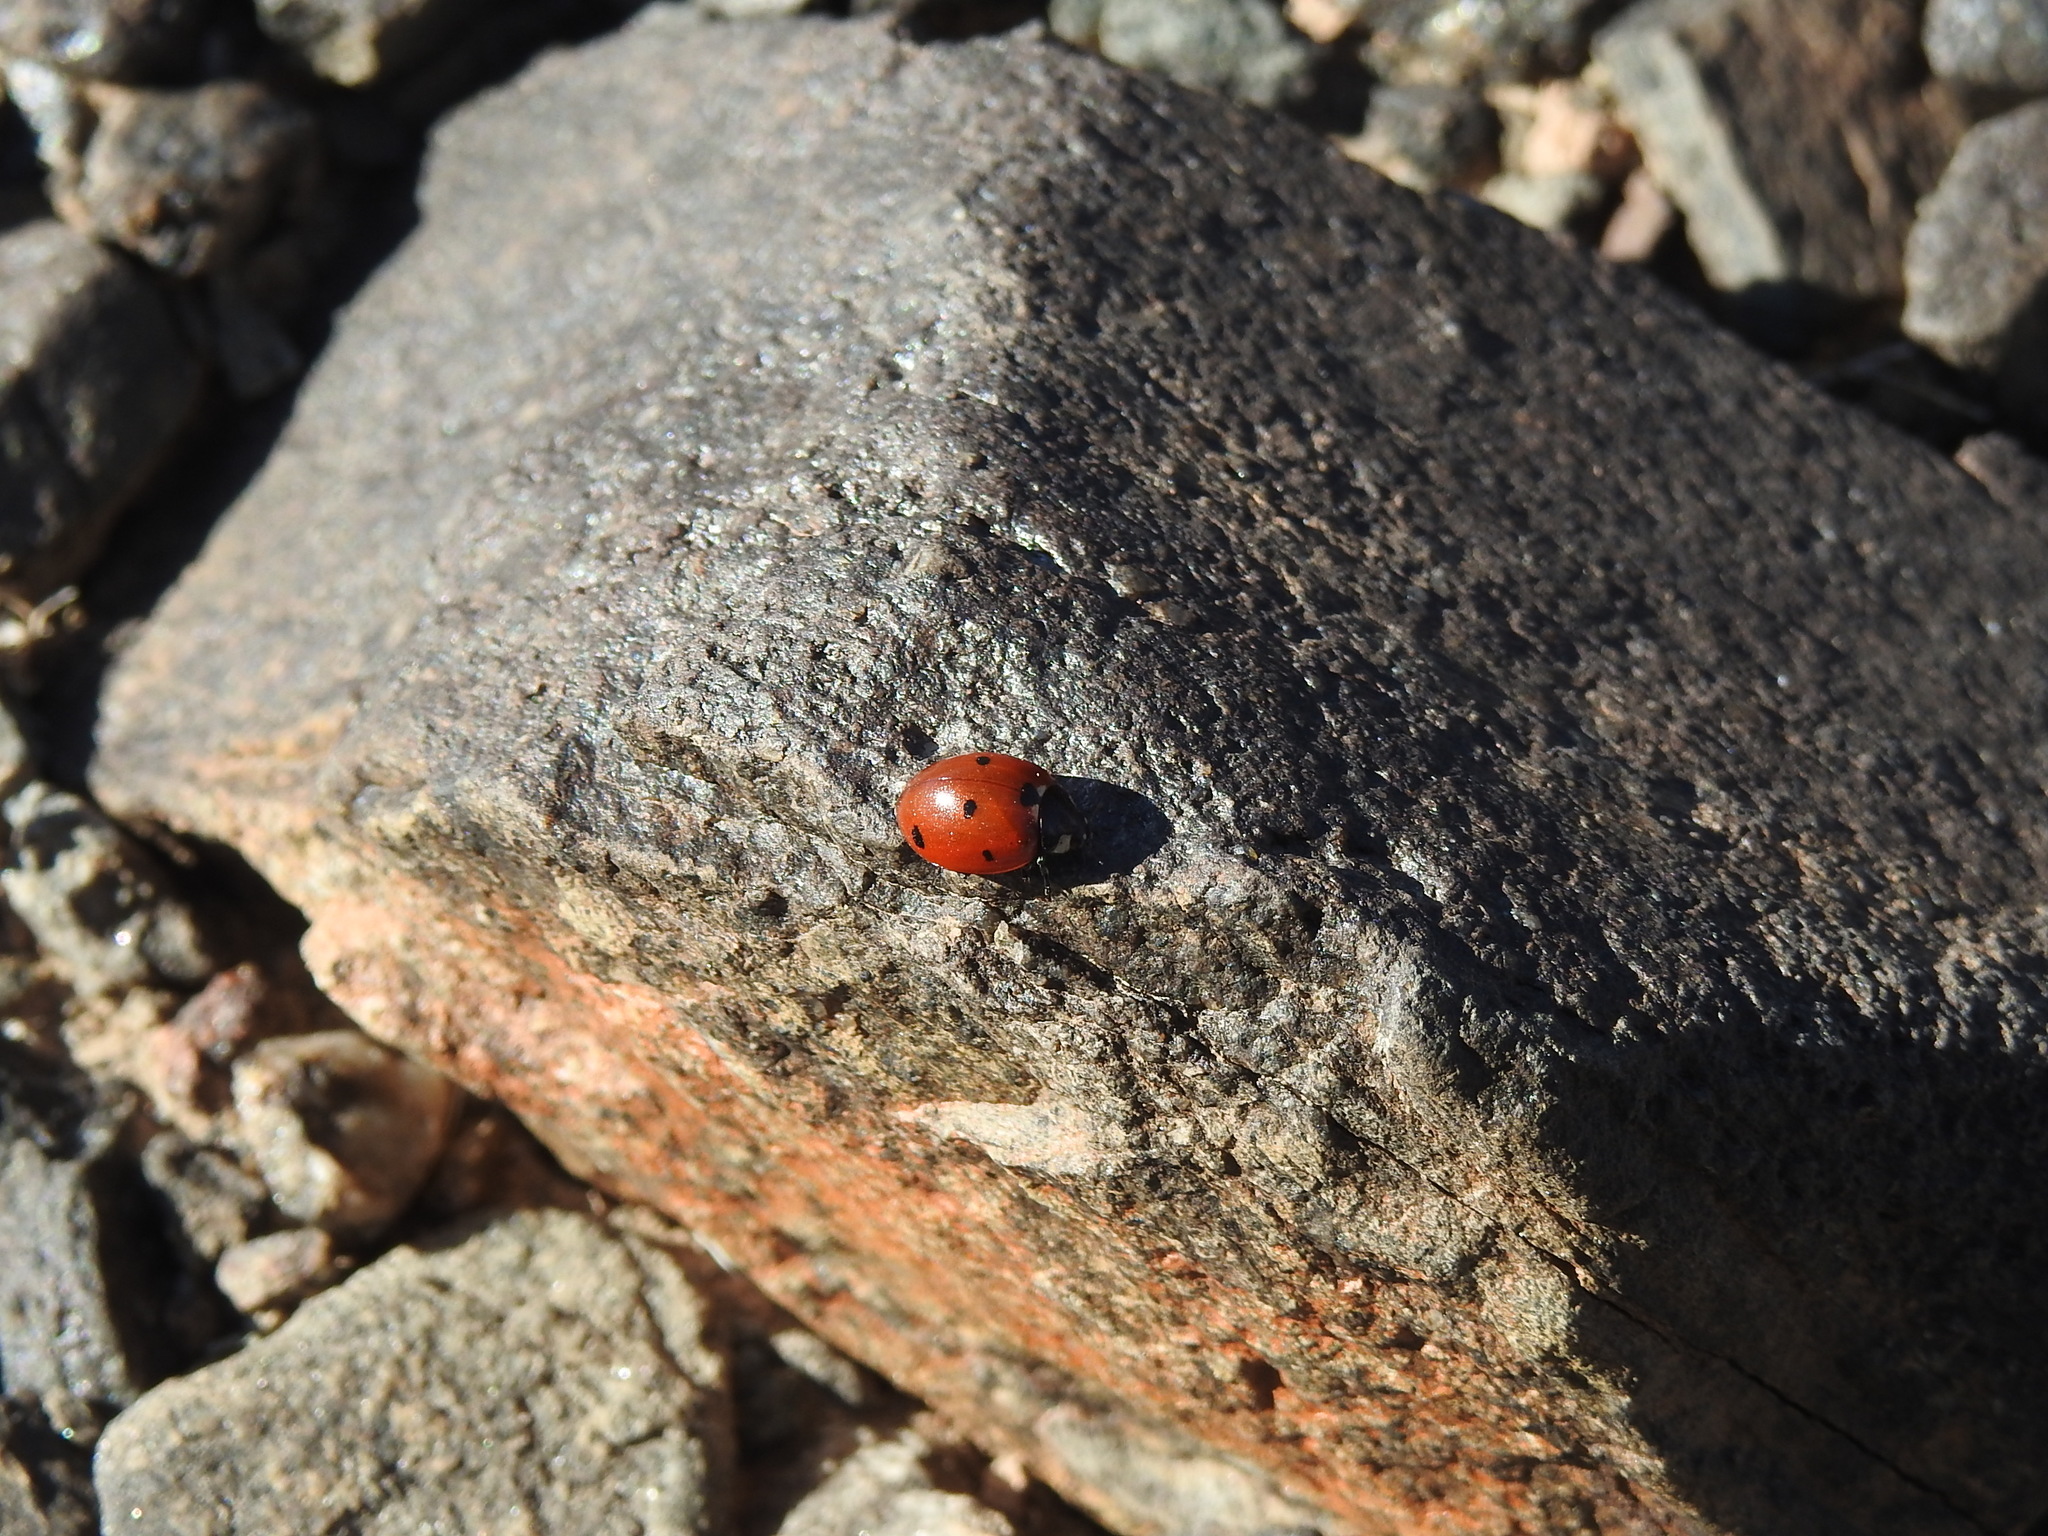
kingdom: Animalia
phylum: Arthropoda
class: Insecta
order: Coleoptera
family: Coccinellidae
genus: Coccinella
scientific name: Coccinella septempunctata
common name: Sevenspotted lady beetle
